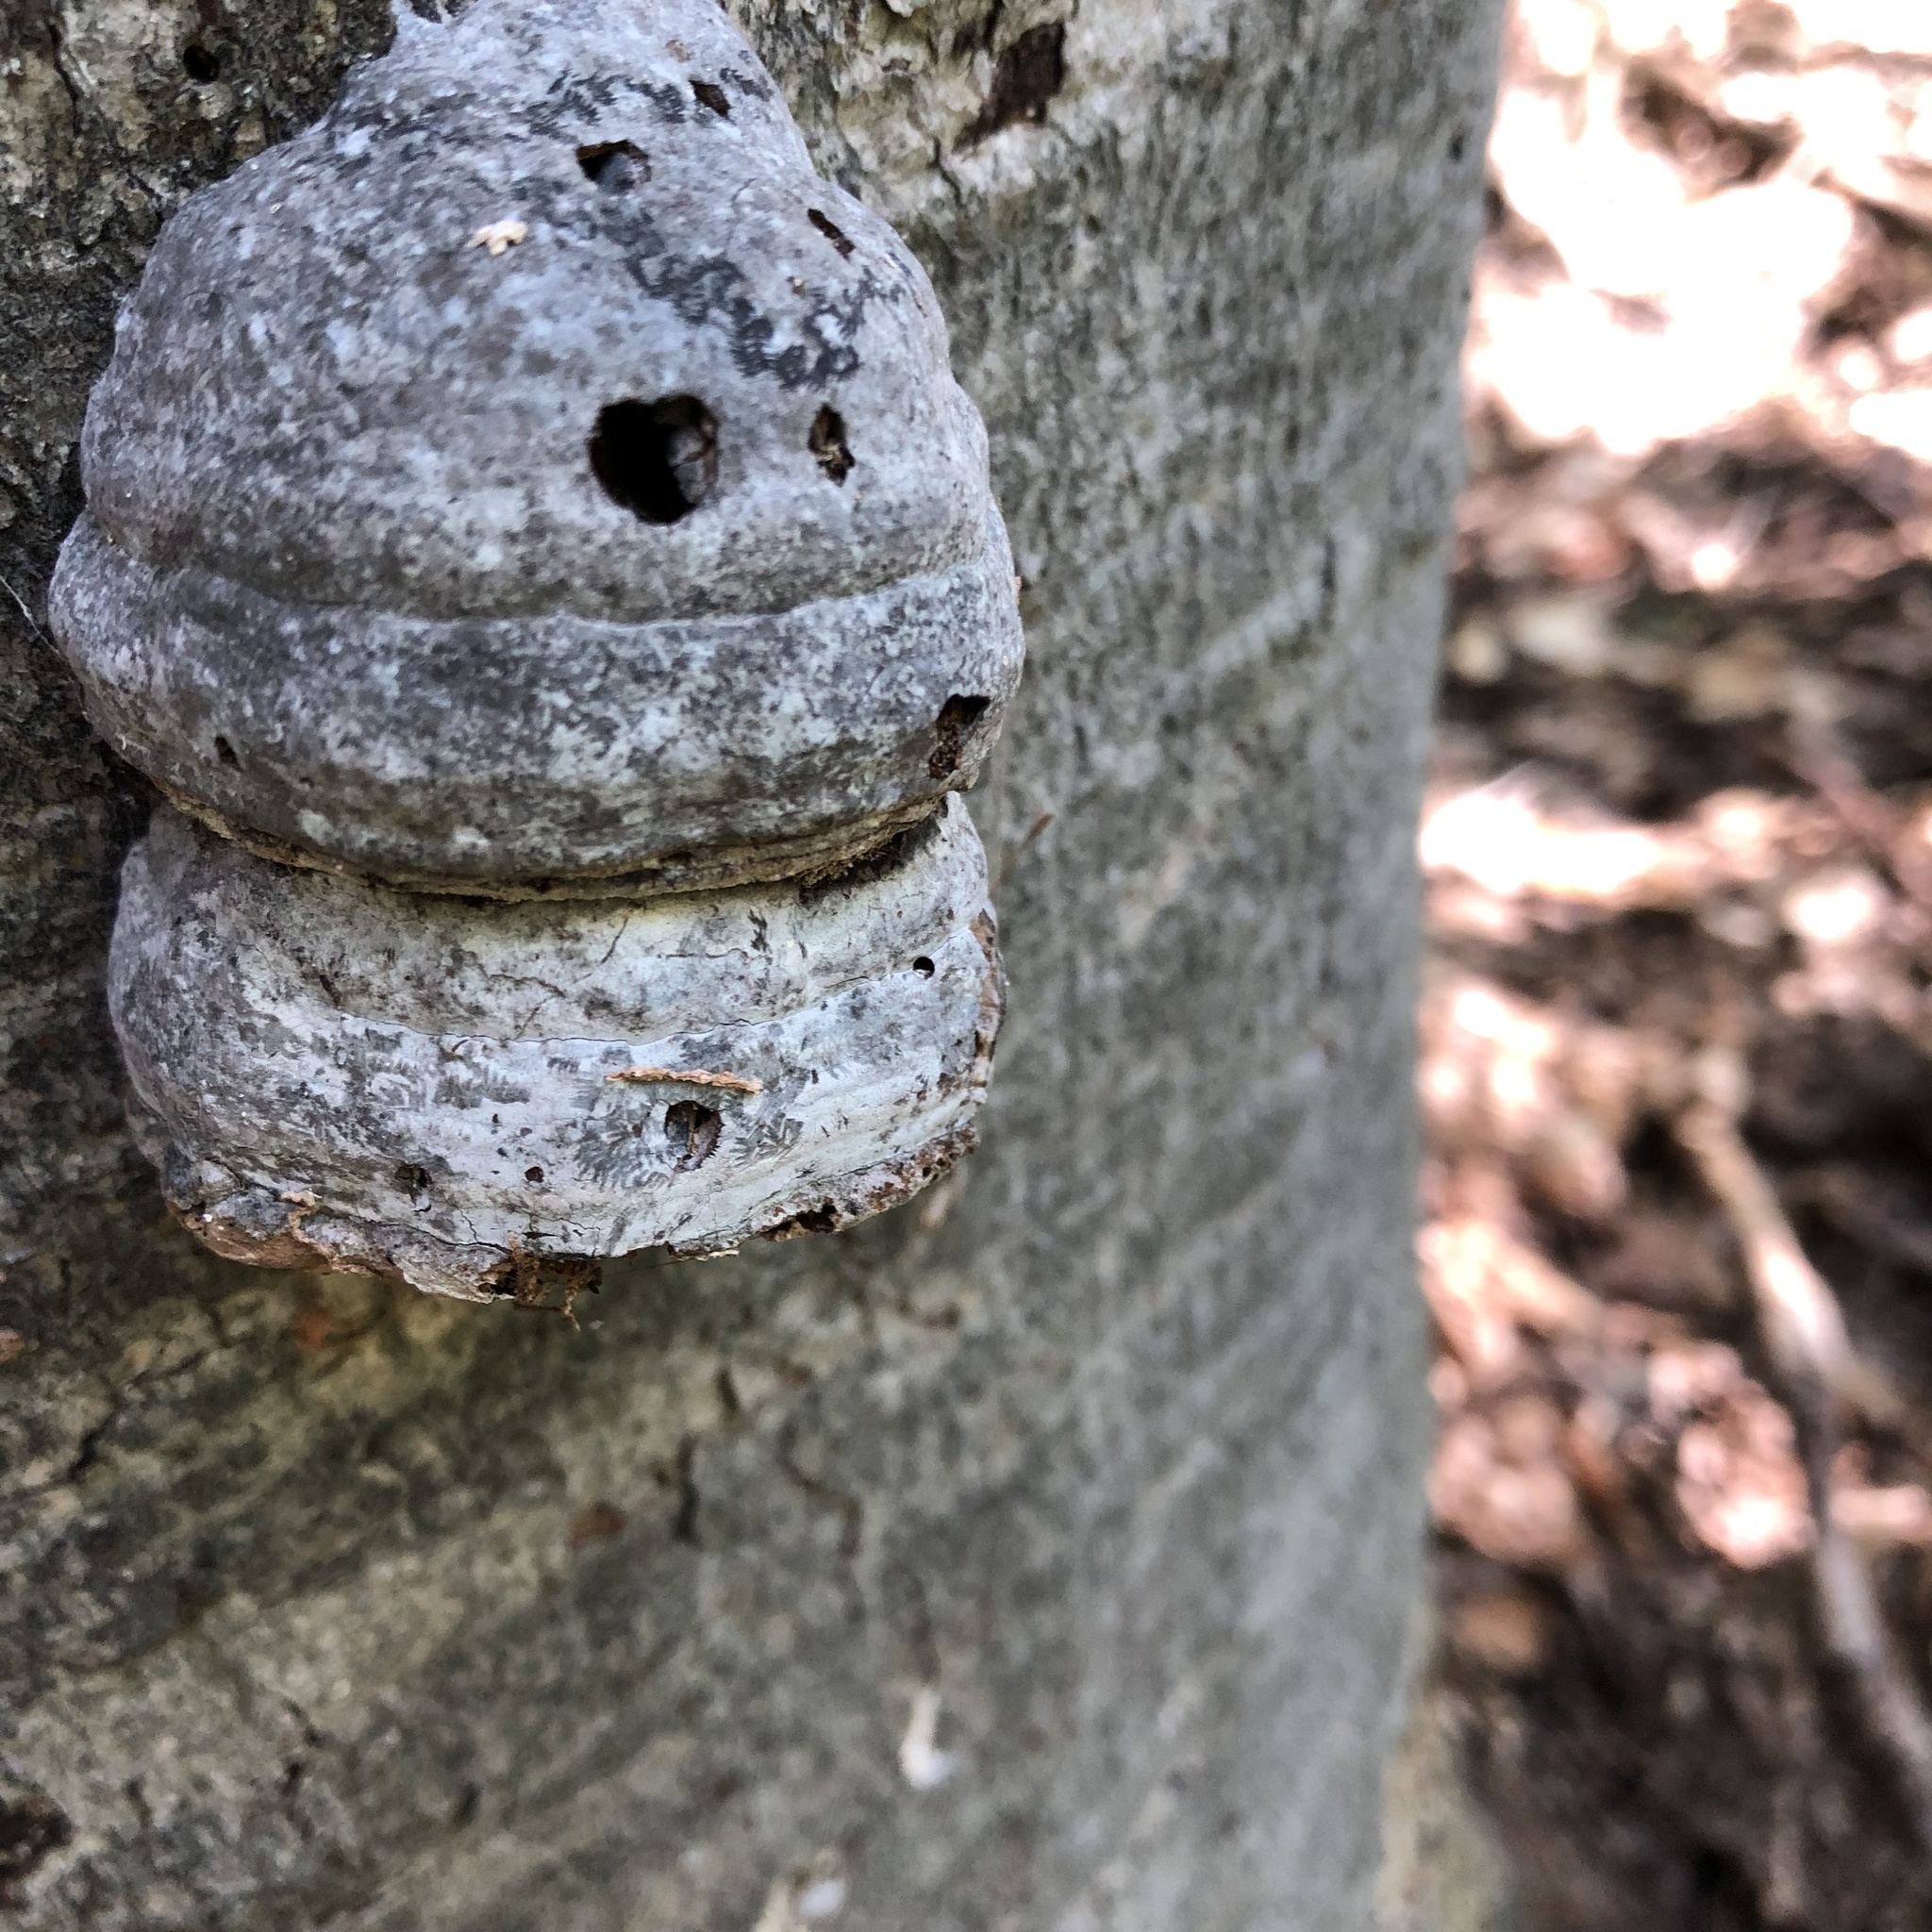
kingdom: Fungi
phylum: Basidiomycota
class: Agaricomycetes
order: Polyporales
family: Polyporaceae
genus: Fomes
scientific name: Fomes fomentarius
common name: Hoof fungus
